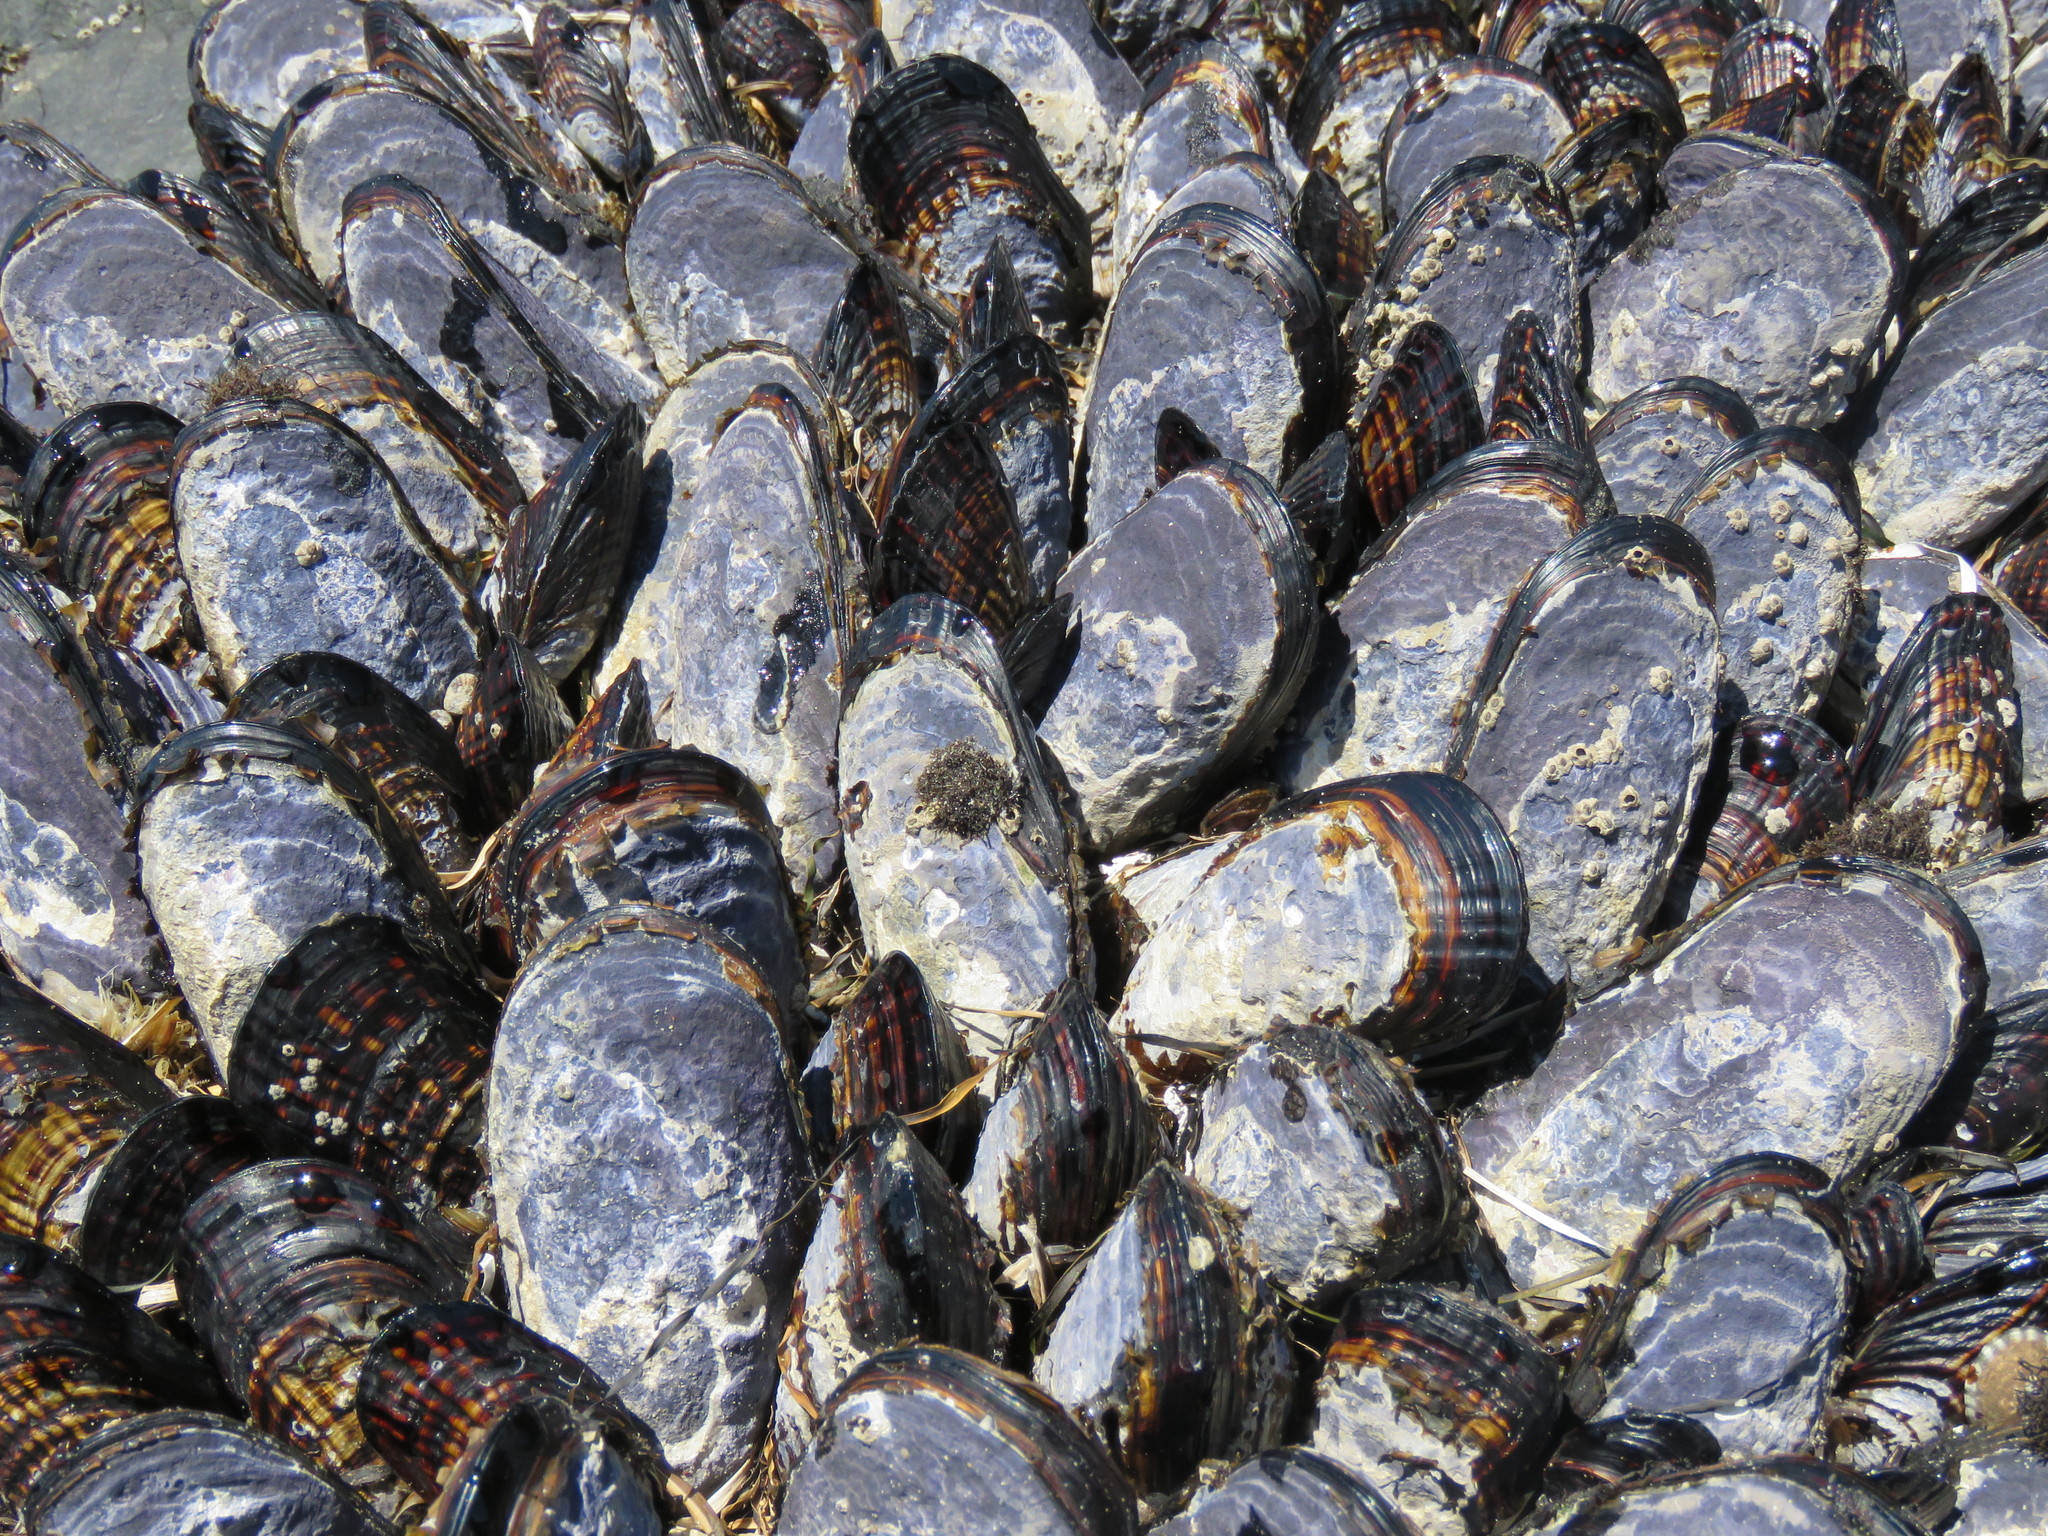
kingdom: Animalia
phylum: Mollusca
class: Bivalvia
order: Mytilida
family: Mytilidae
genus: Mytilus
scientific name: Mytilus californianus
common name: California mussel
